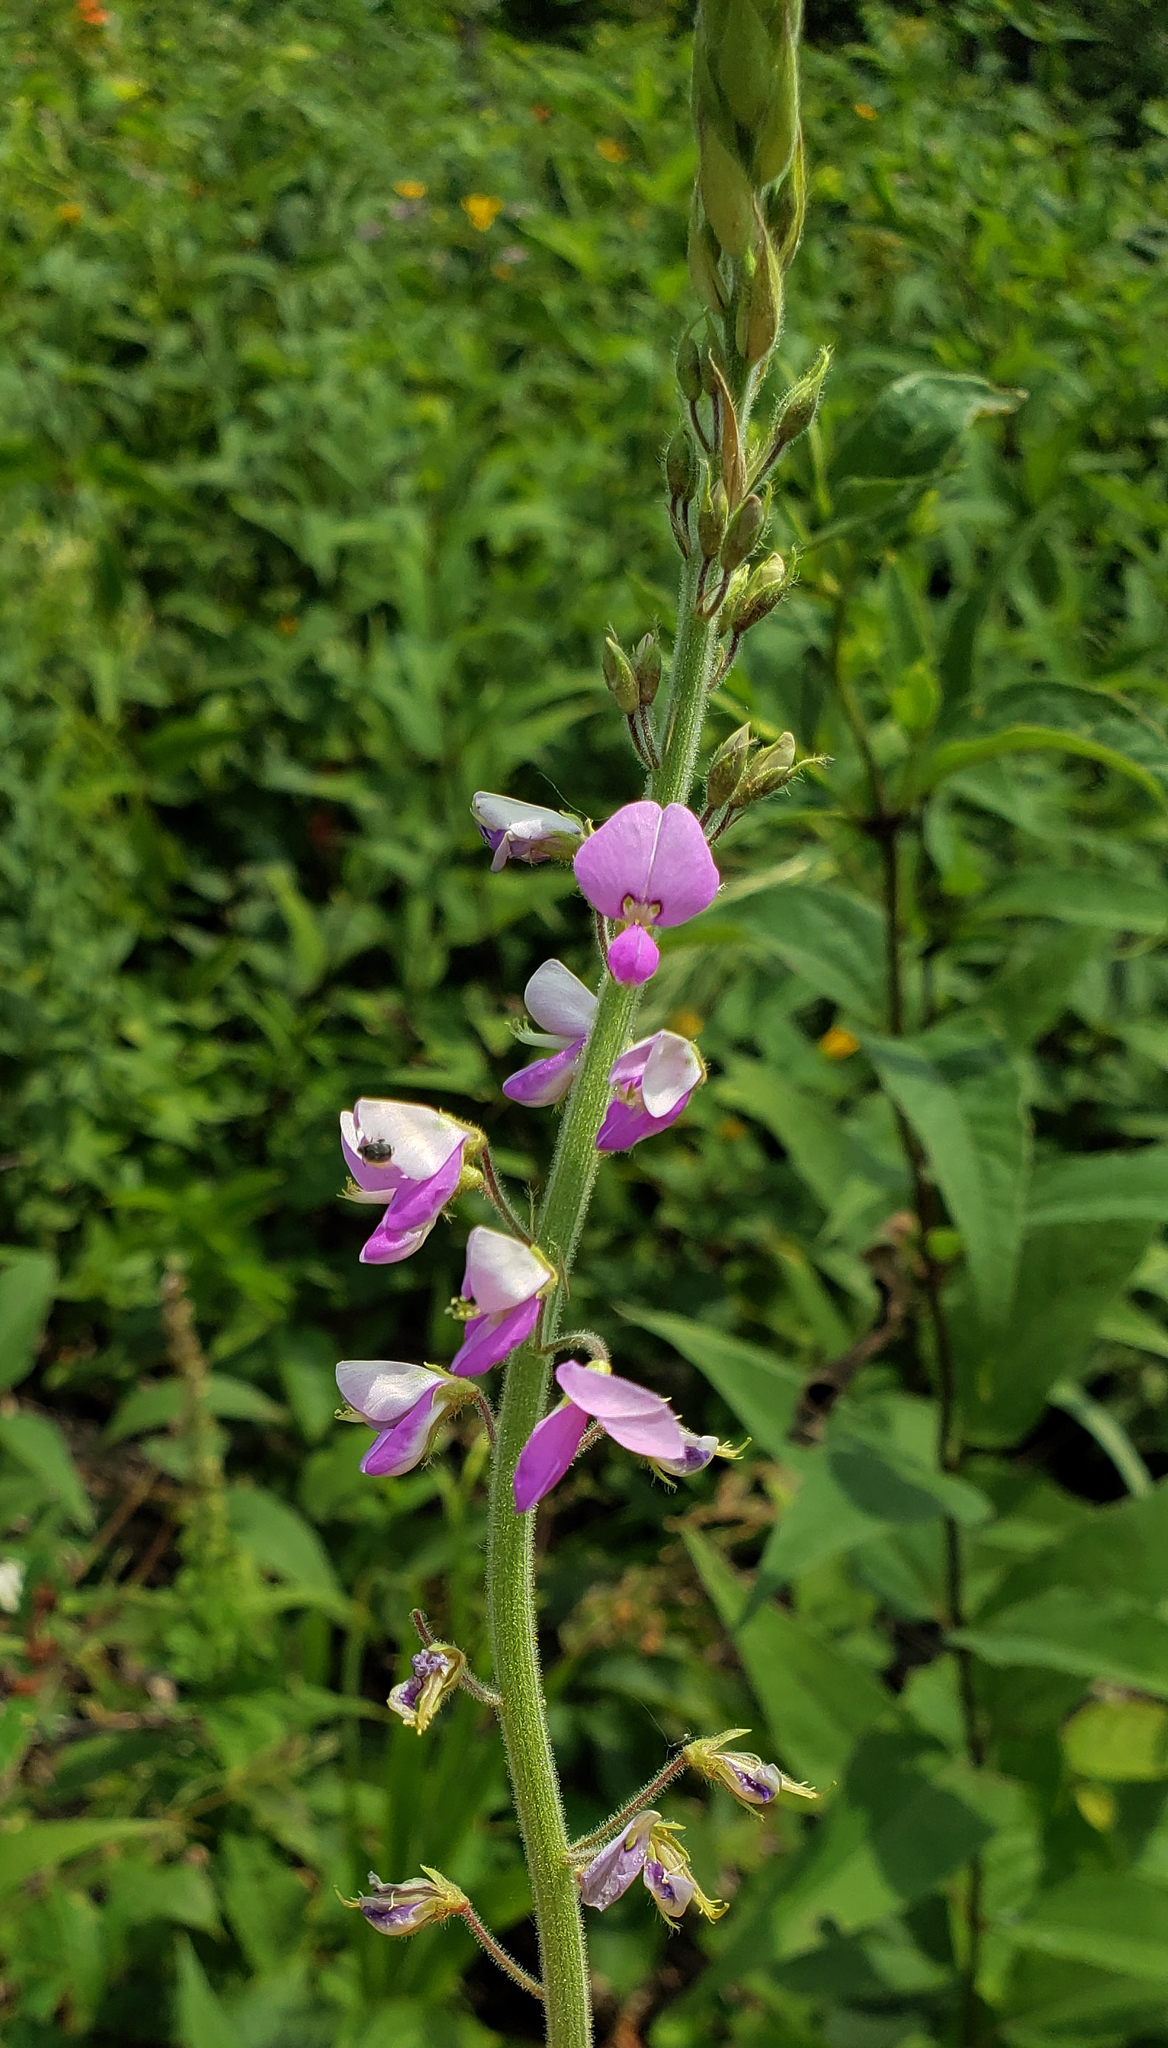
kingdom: Plantae
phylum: Tracheophyta
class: Magnoliopsida
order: Fabales
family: Fabaceae
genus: Desmodium
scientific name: Desmodium illinoense
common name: Illinois tick-clover
